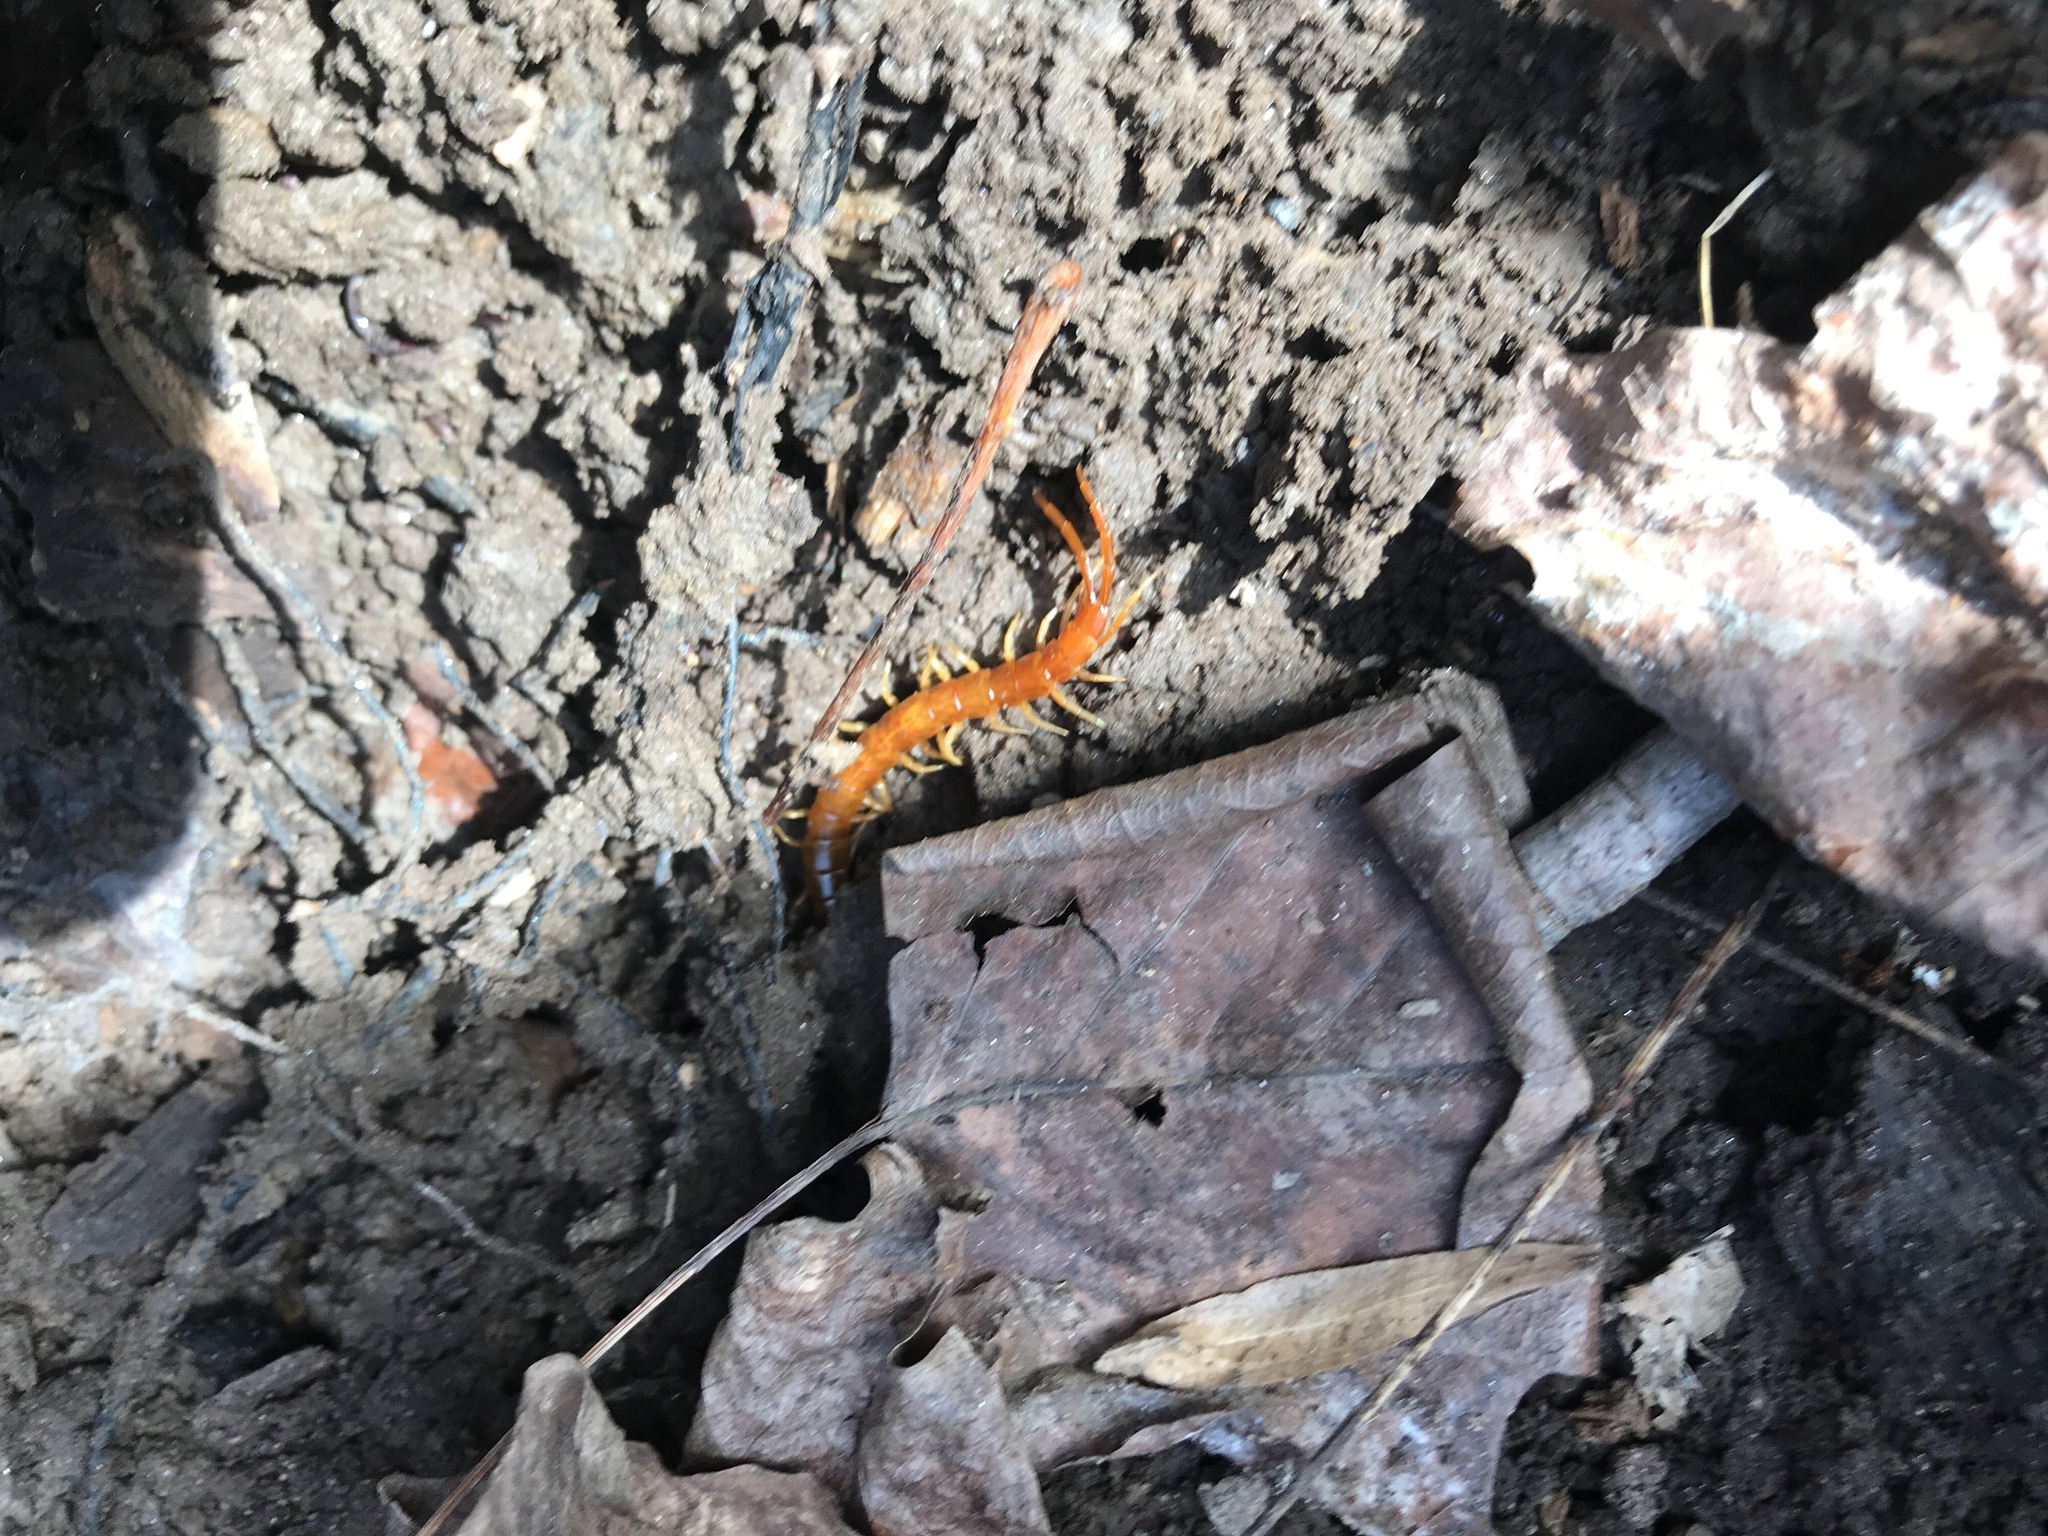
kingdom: Animalia
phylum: Arthropoda
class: Chilopoda
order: Scolopendromorpha
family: Scolopocryptopidae
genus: Scolopocryptops
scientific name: Scolopocryptops sexspinosus
